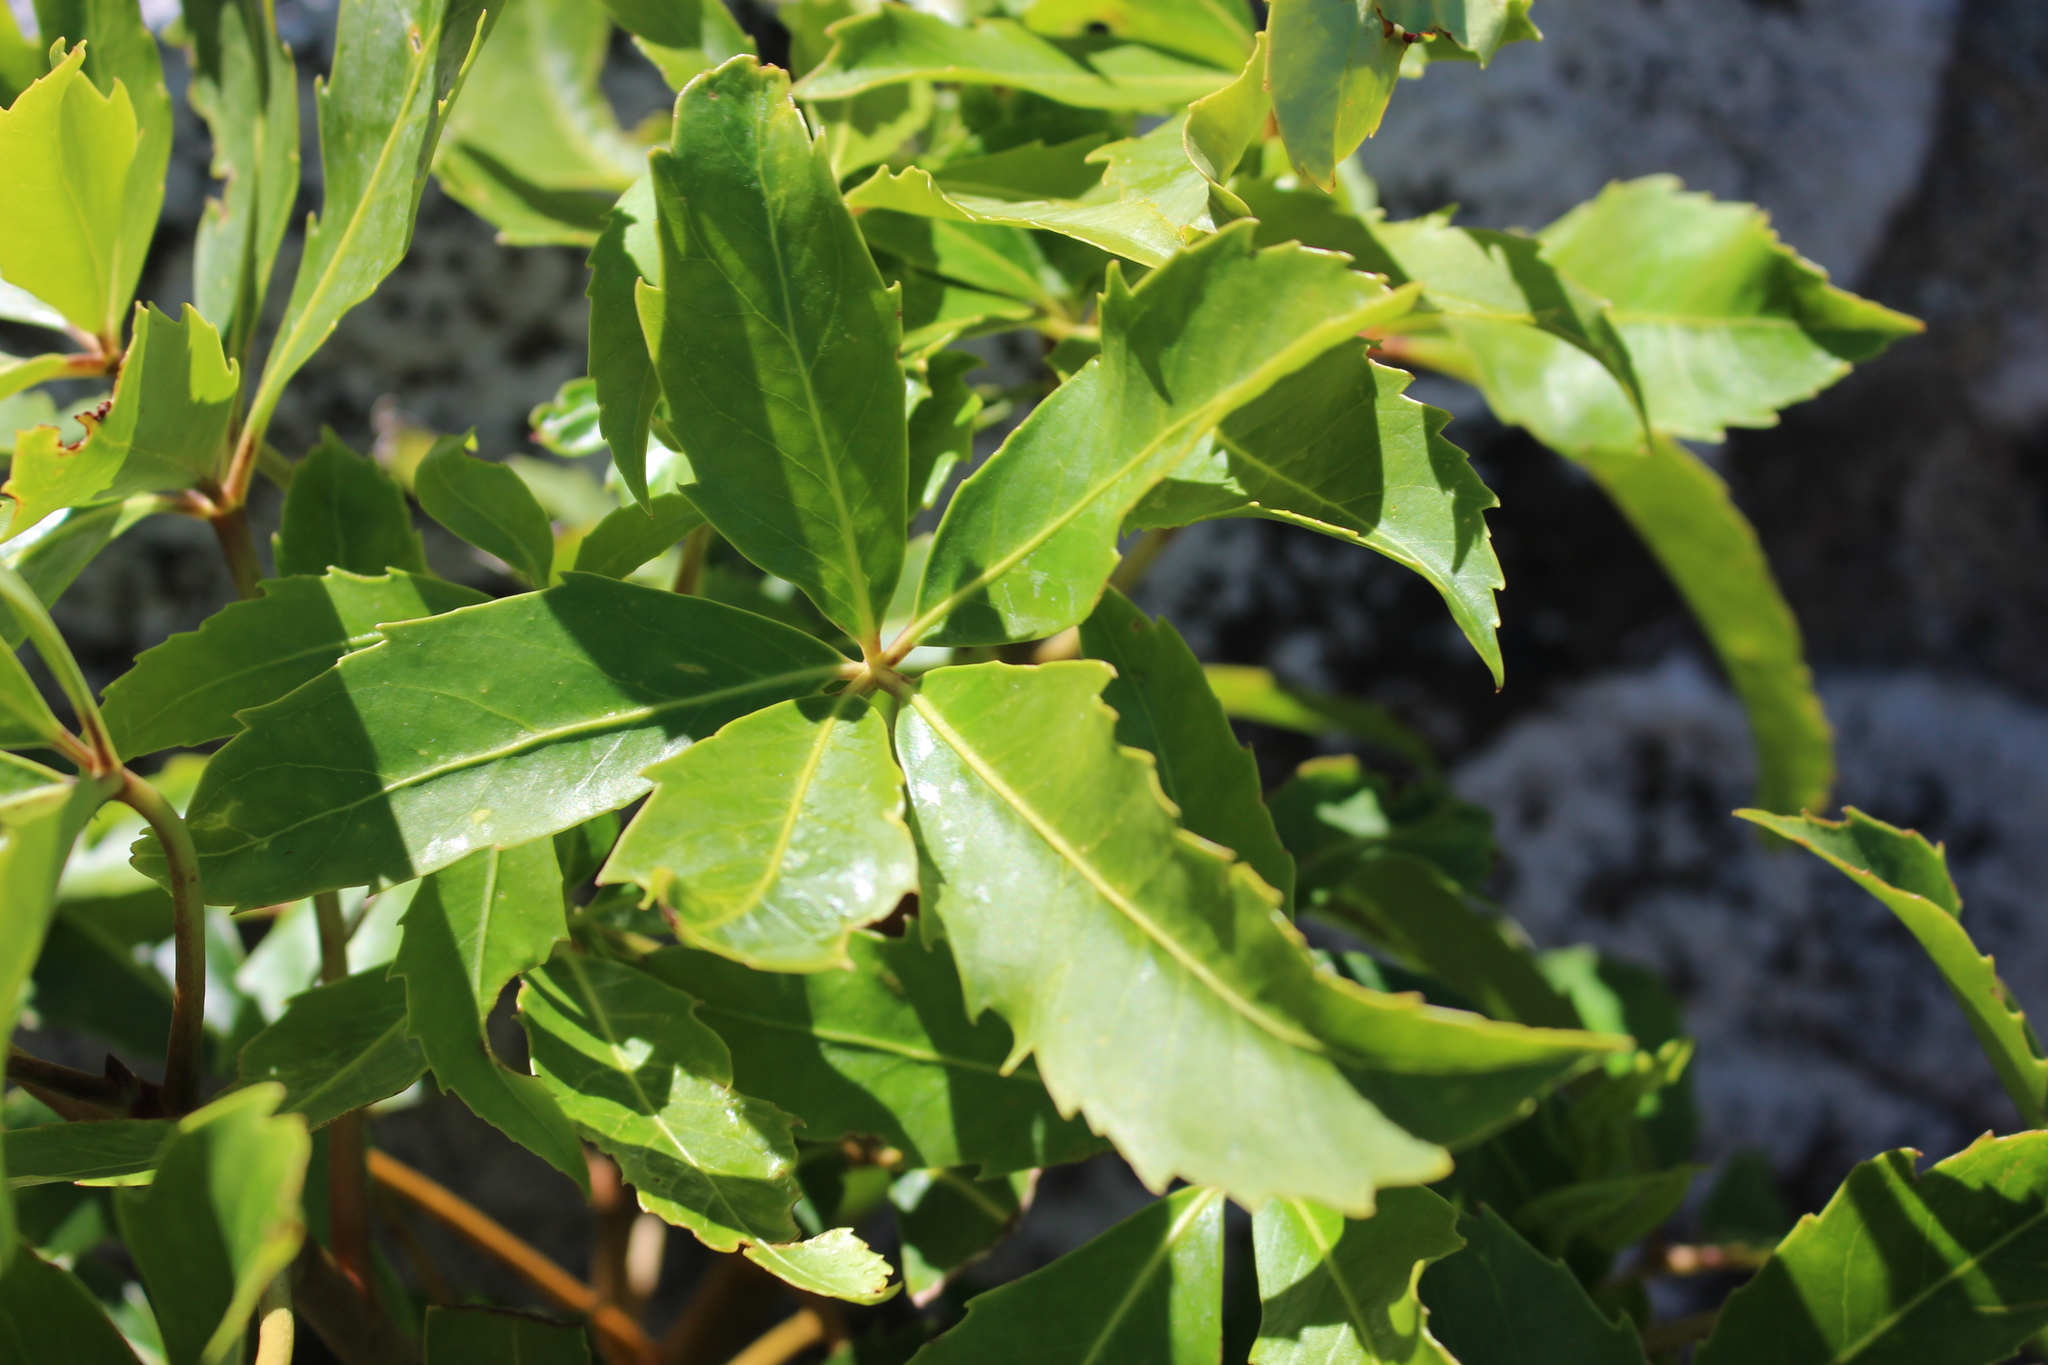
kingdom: Plantae
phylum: Tracheophyta
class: Magnoliopsida
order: Apiales
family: Araliaceae
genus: Neopanax
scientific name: Neopanax colensoi
